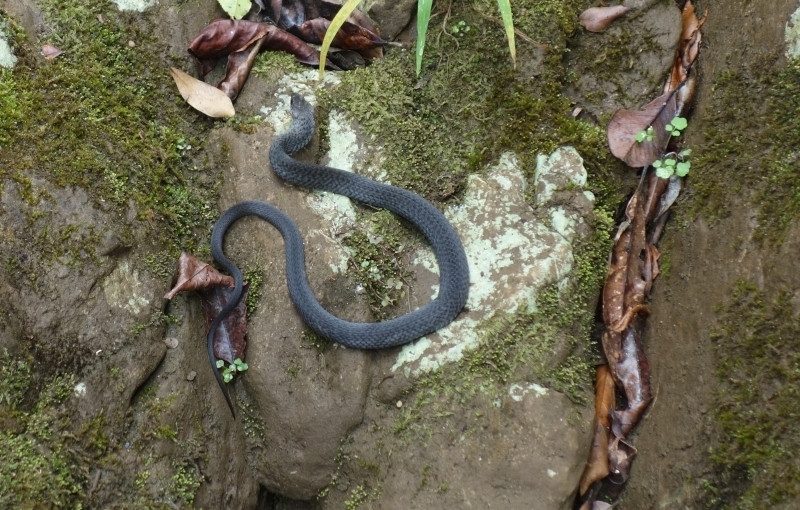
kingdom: Animalia
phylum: Chordata
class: Squamata
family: Colubridae
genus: Tropidonophis
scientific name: Tropidonophis mairii
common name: Common keelback
